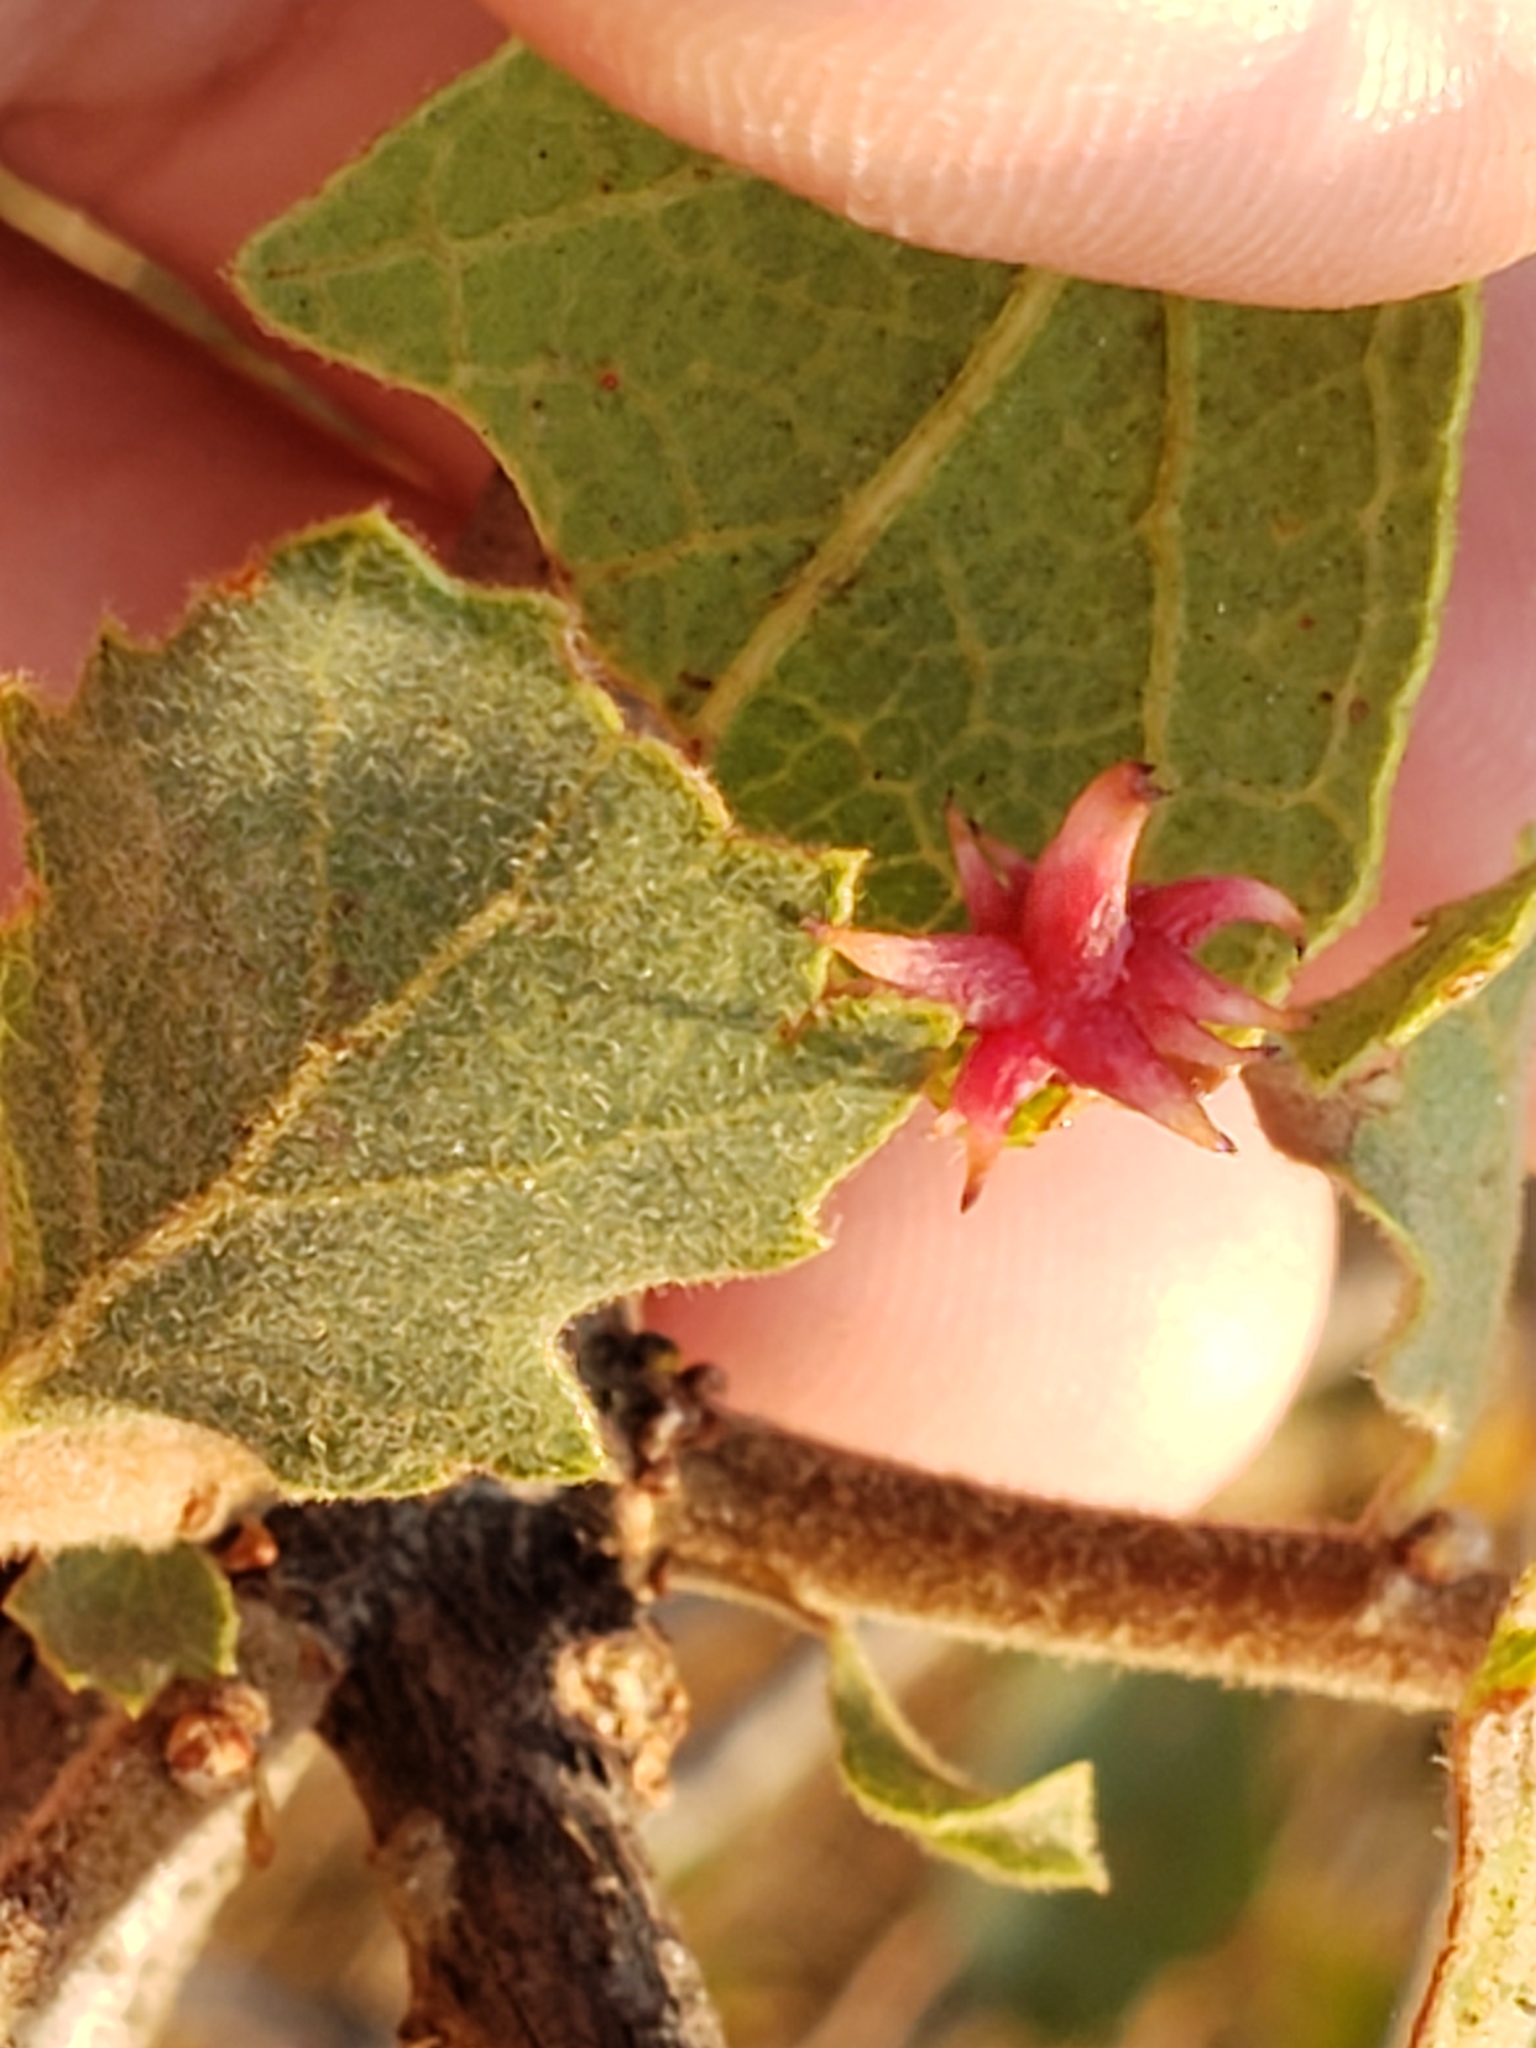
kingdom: Animalia
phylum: Arthropoda
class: Insecta
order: Hymenoptera
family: Cynipidae
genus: Cynips
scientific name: Cynips
